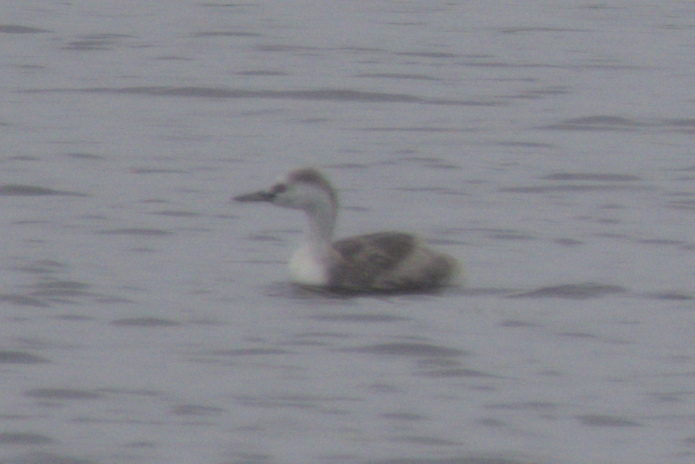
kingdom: Animalia
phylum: Chordata
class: Aves
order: Podicipediformes
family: Podicipedidae
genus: Aechmophorus
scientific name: Aechmophorus occidentalis
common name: Western grebe
